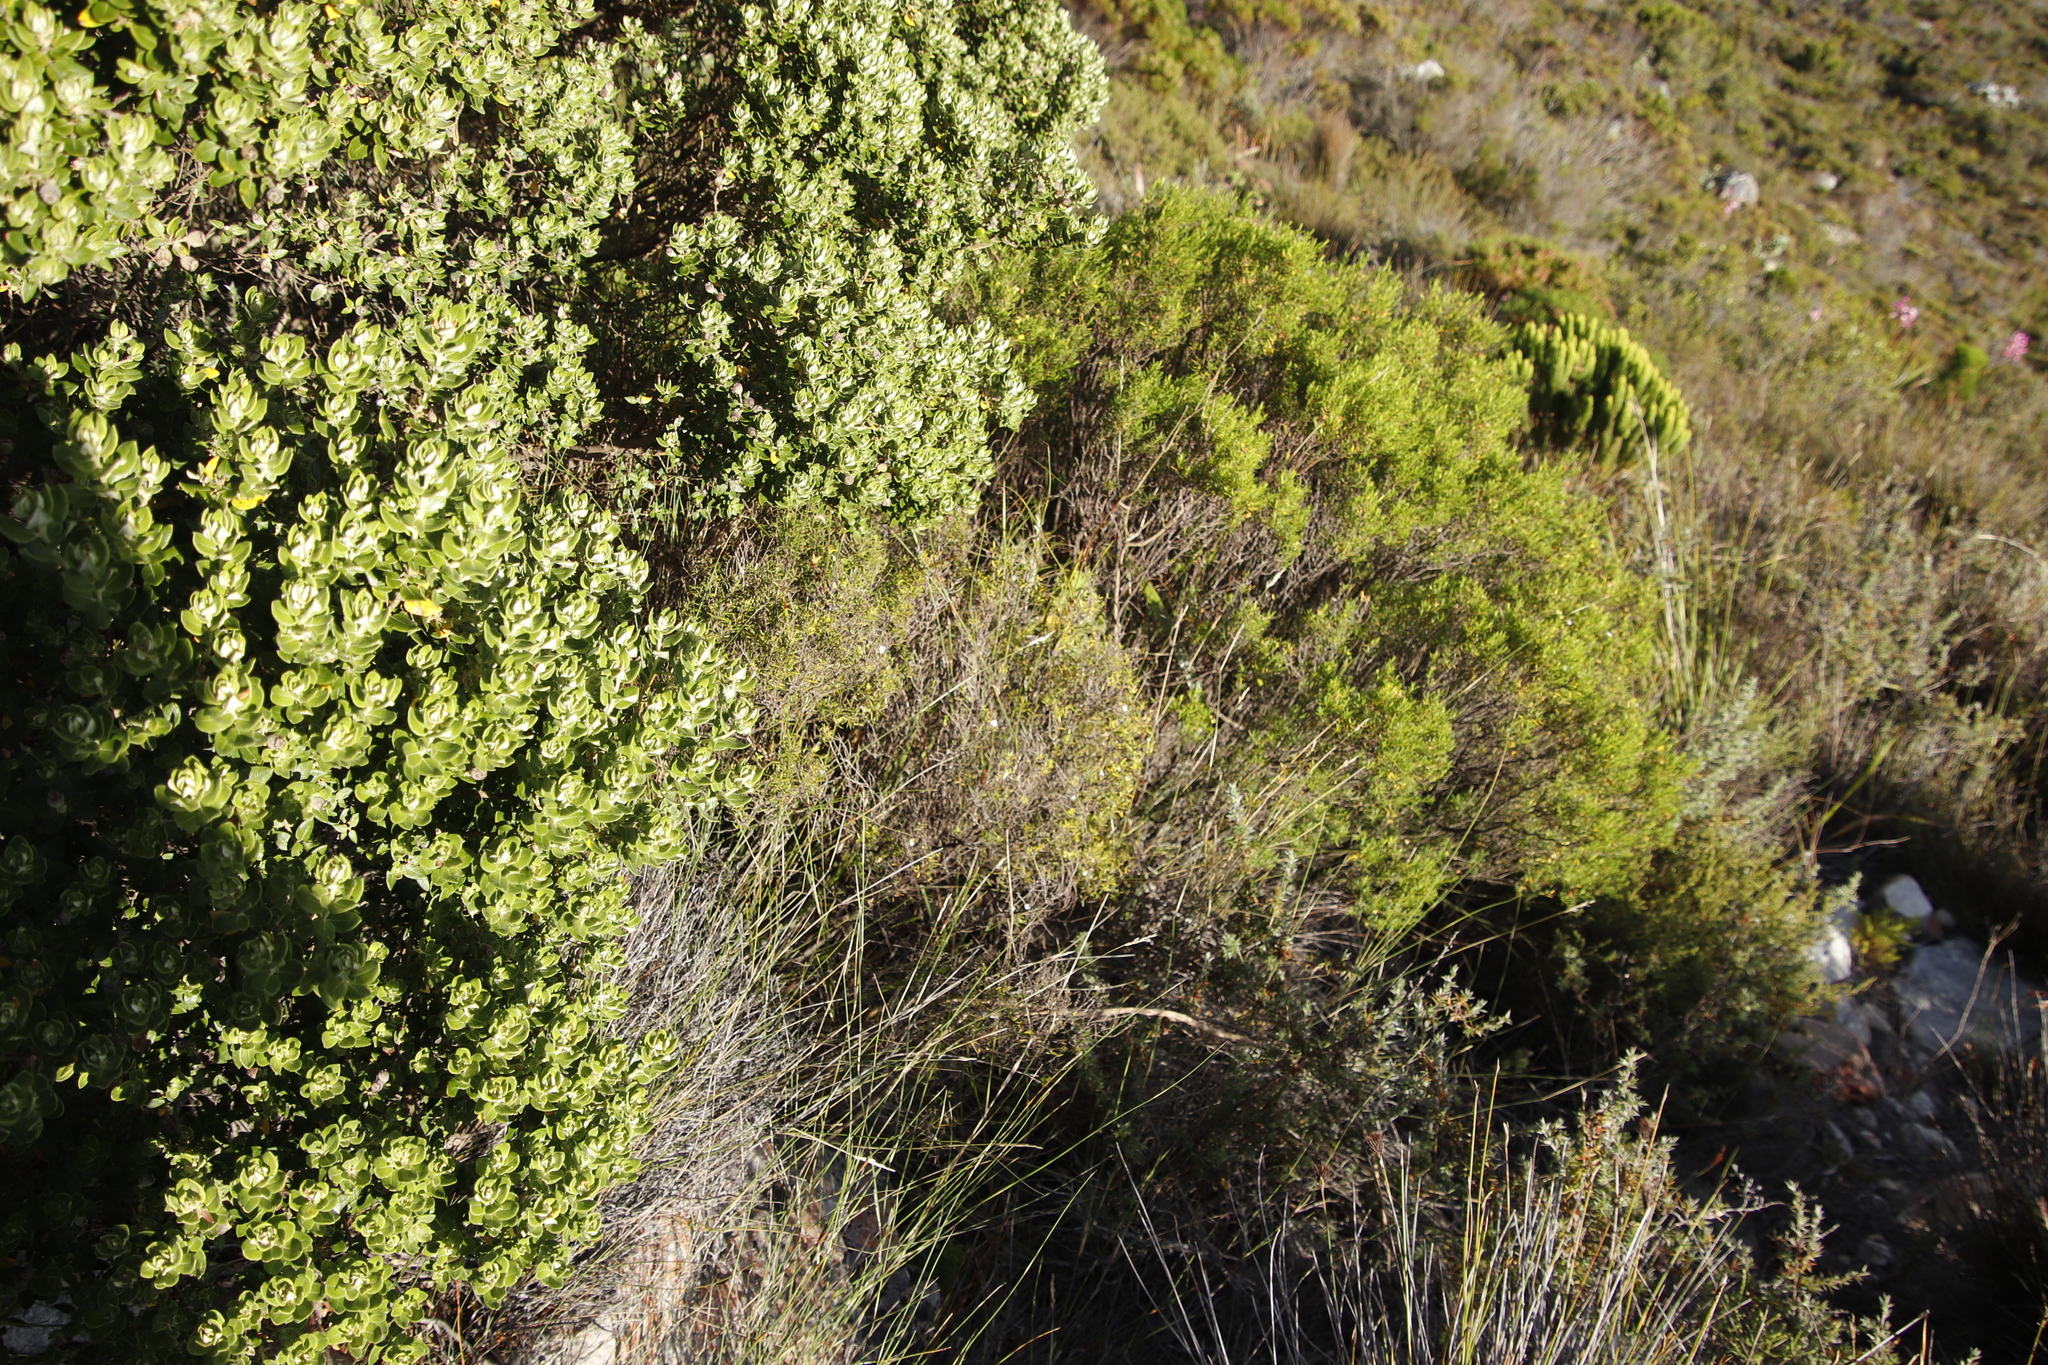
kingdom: Plantae
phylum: Tracheophyta
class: Magnoliopsida
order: Sapindales
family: Rutaceae
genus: Coleonema
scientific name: Coleonema album
